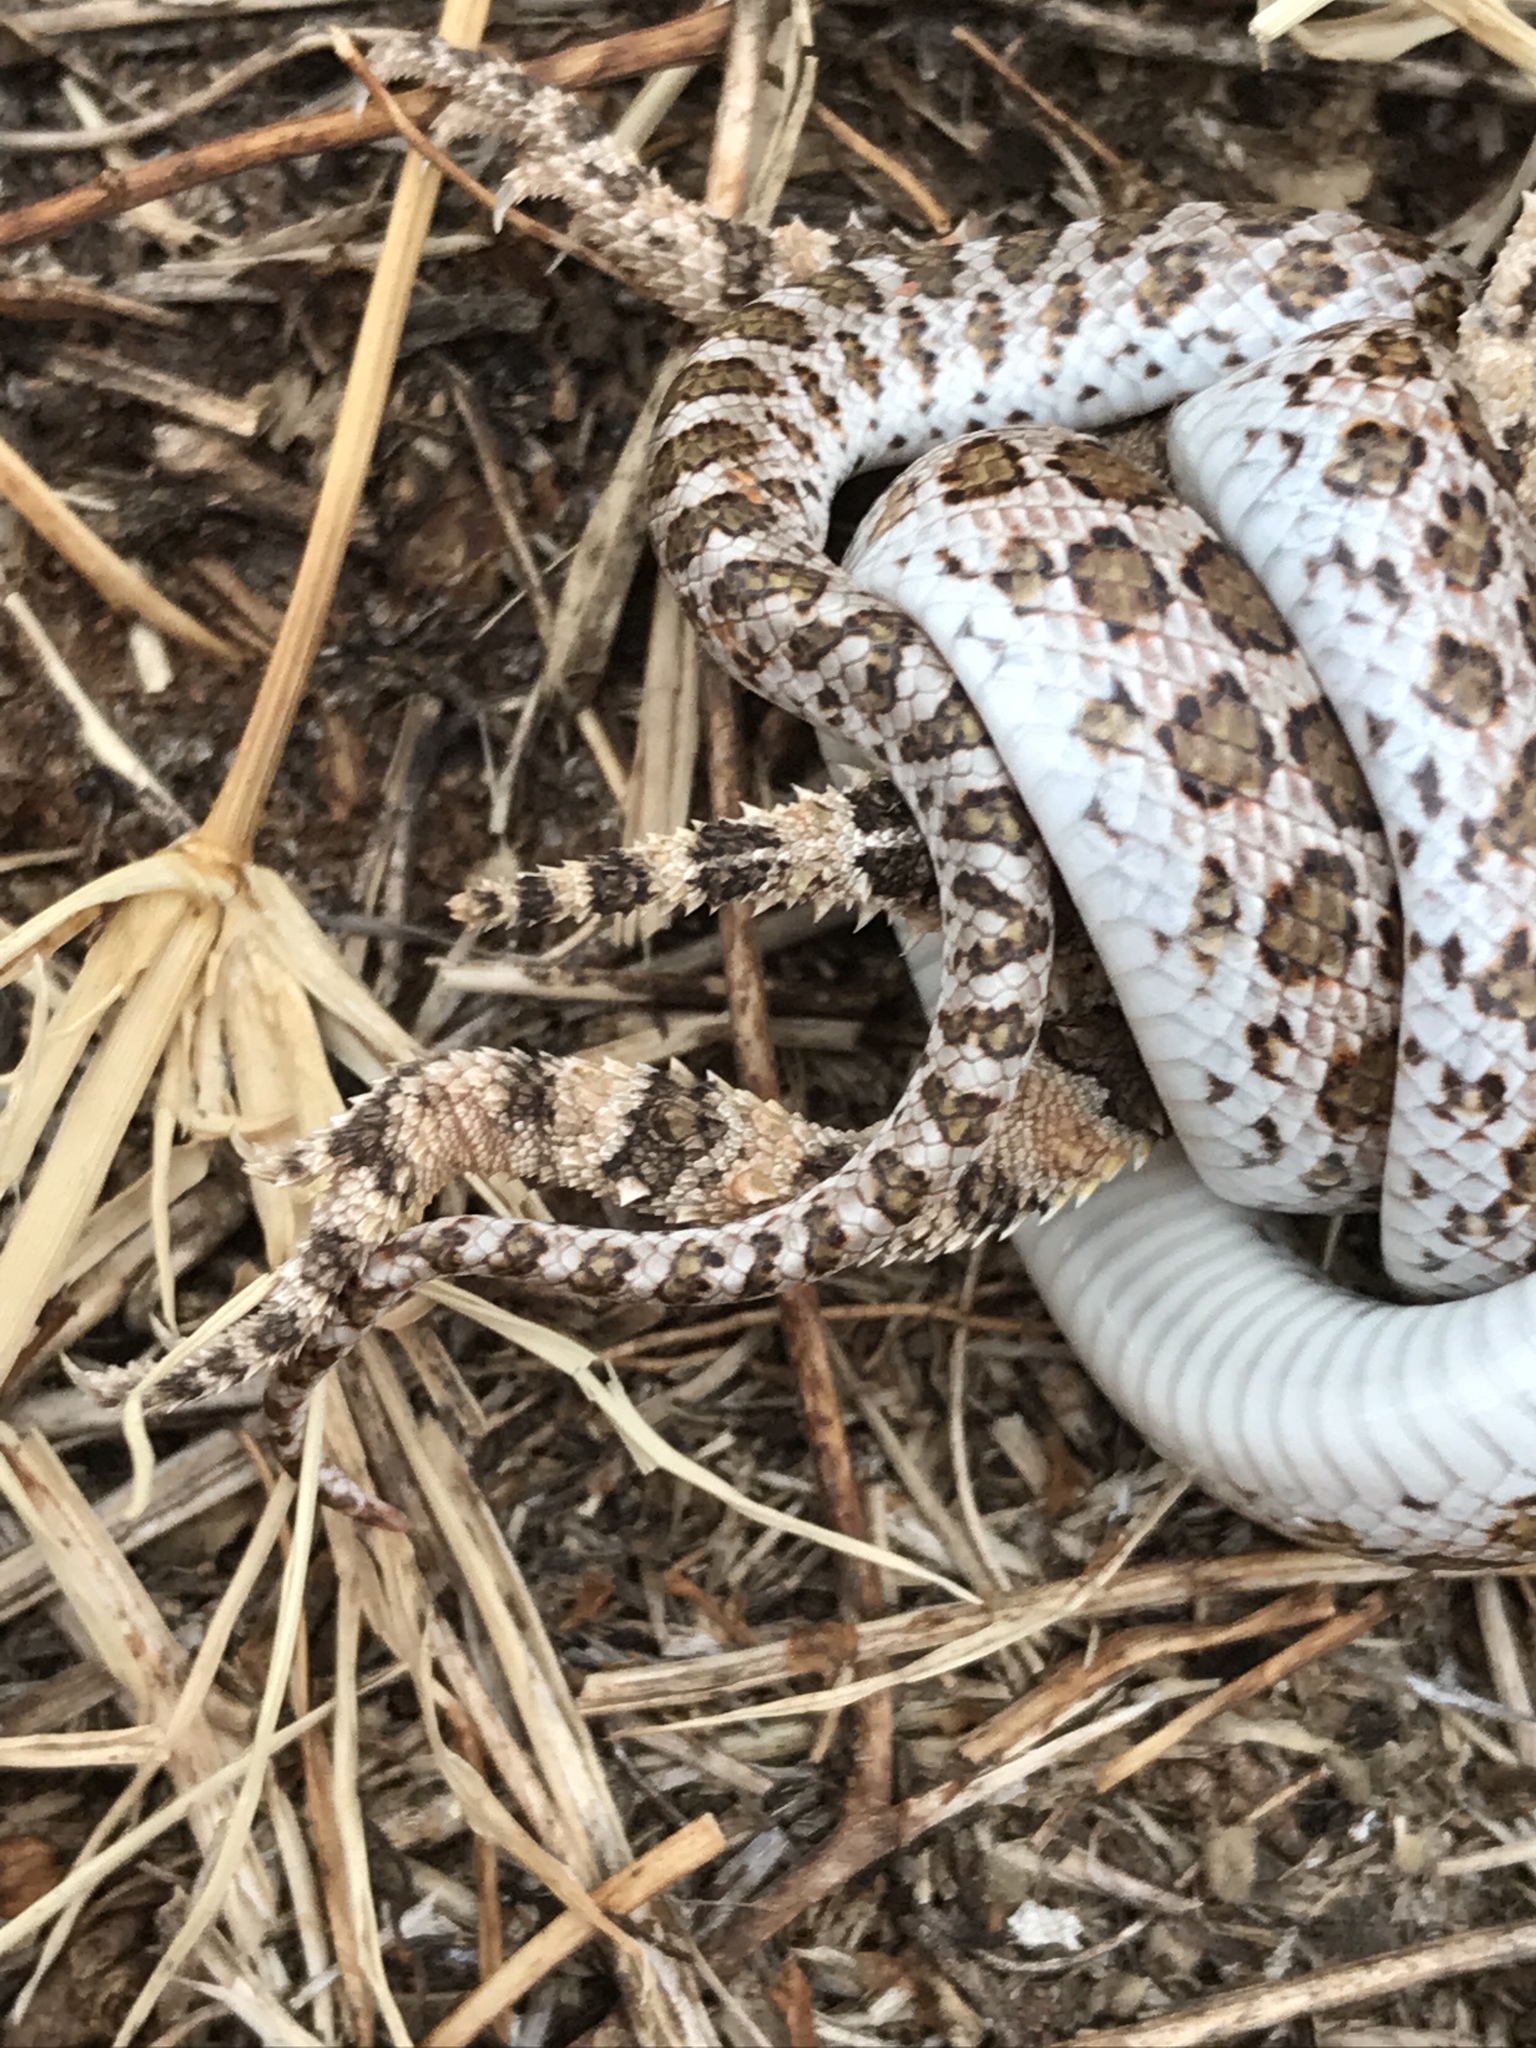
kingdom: Animalia
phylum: Chordata
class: Squamata
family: Colubridae
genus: Arizona
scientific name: Arizona elegans
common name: Glossy snake
